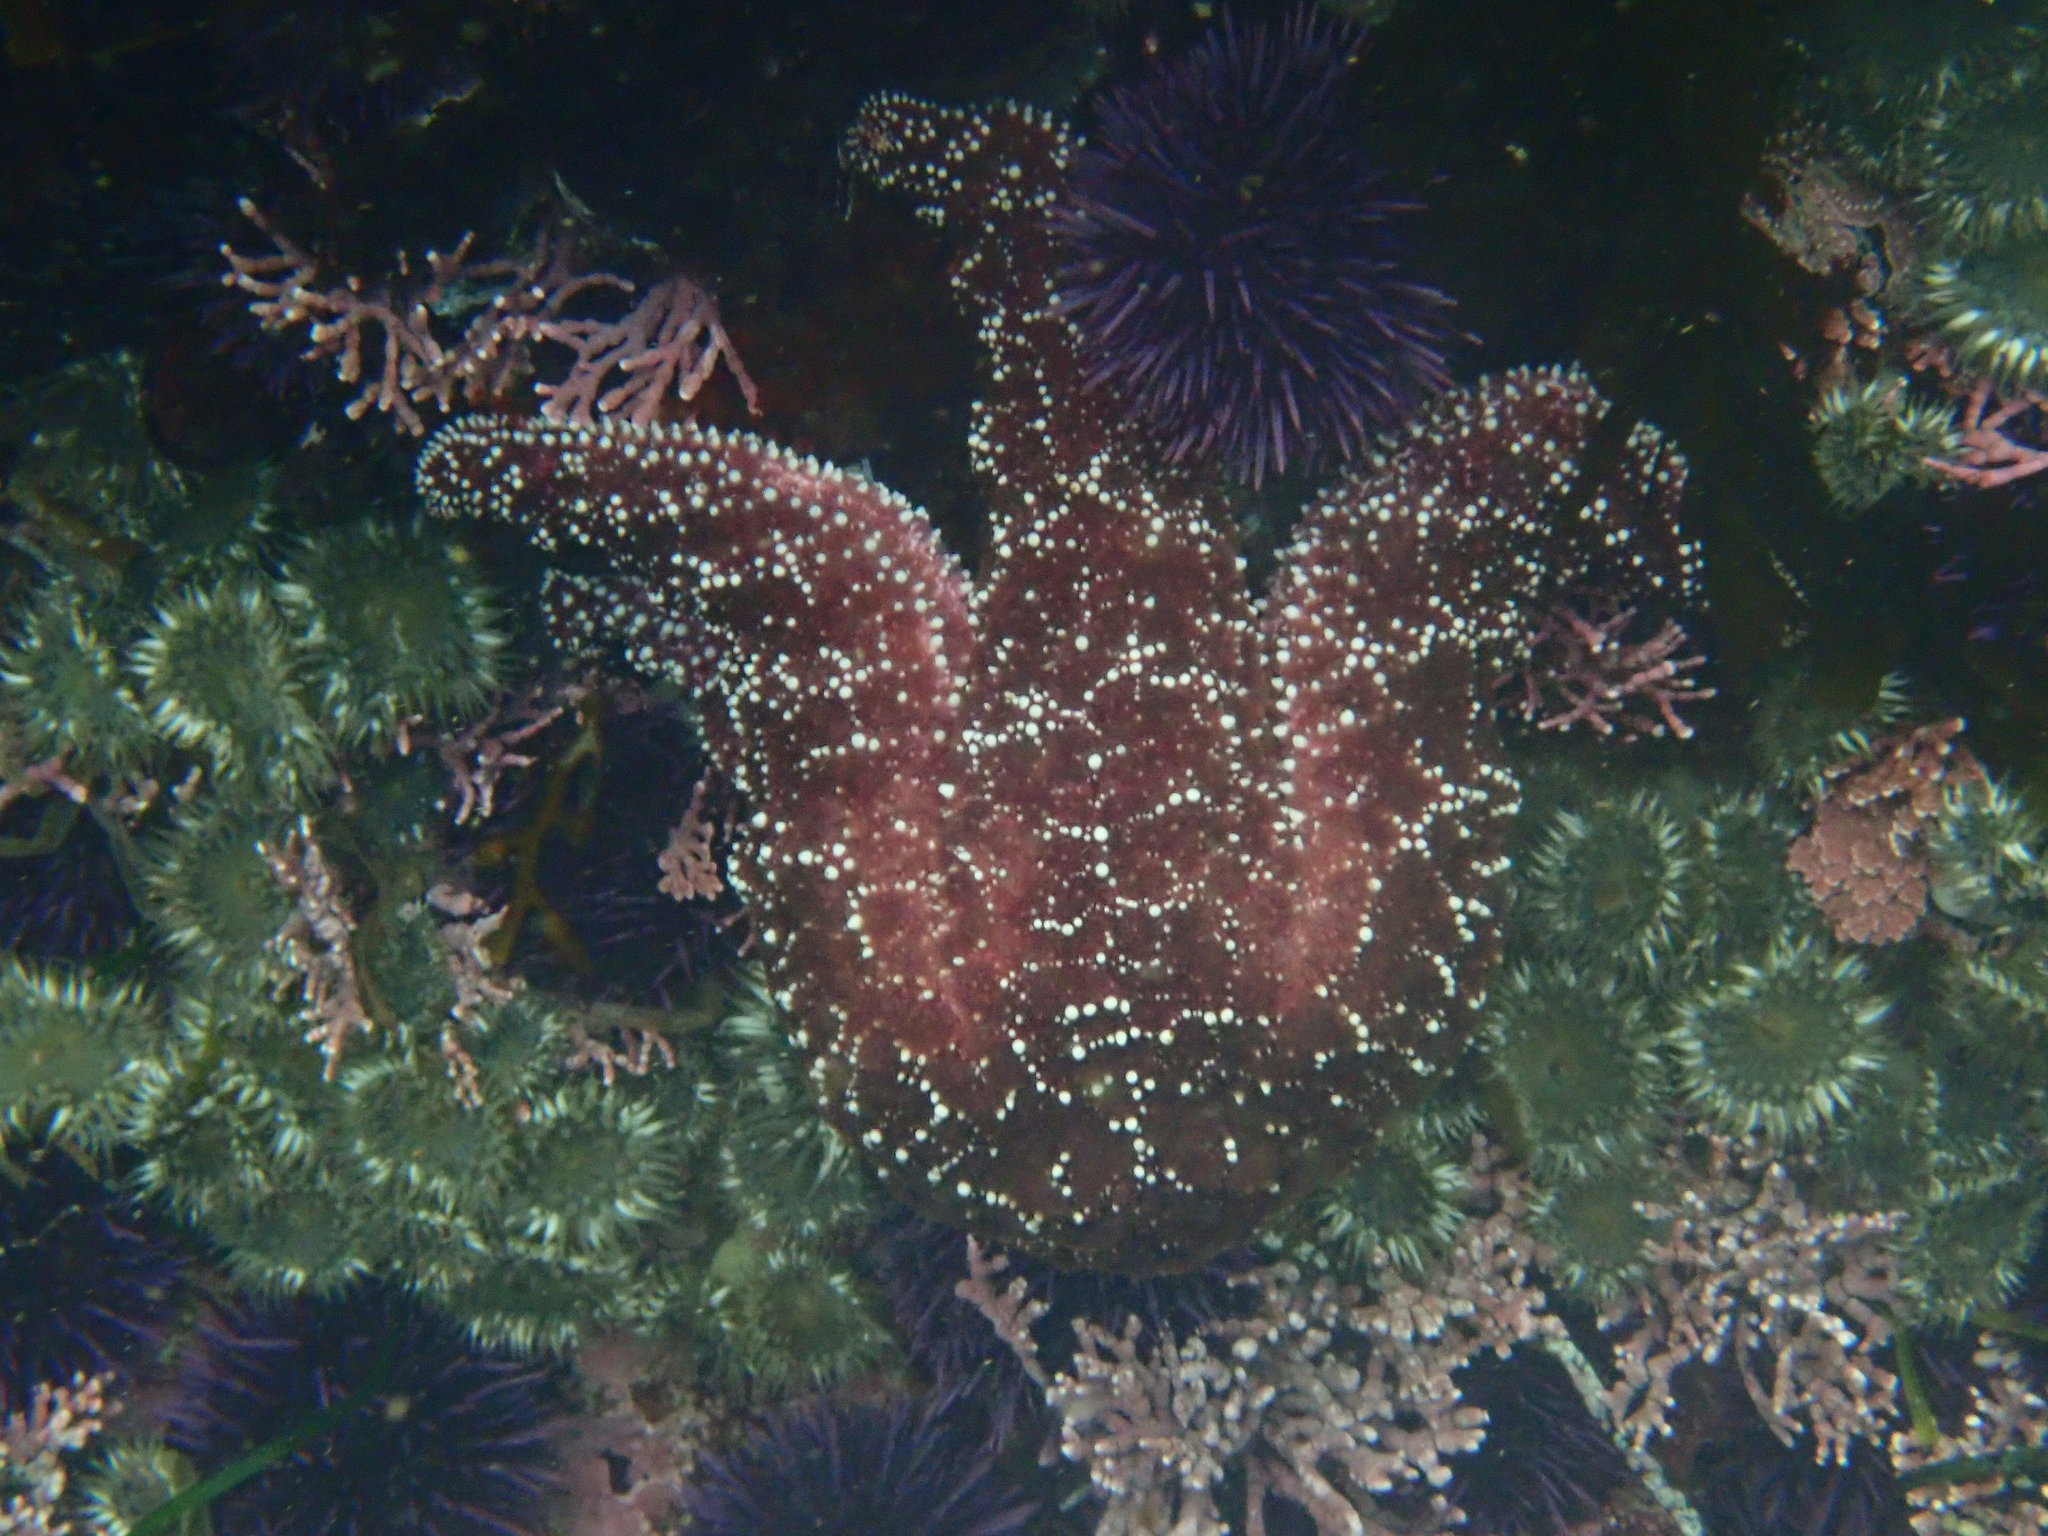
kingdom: Animalia
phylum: Echinodermata
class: Asteroidea
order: Forcipulatida
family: Asteriidae
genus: Pisaster
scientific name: Pisaster ochraceus
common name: Ochre stars
